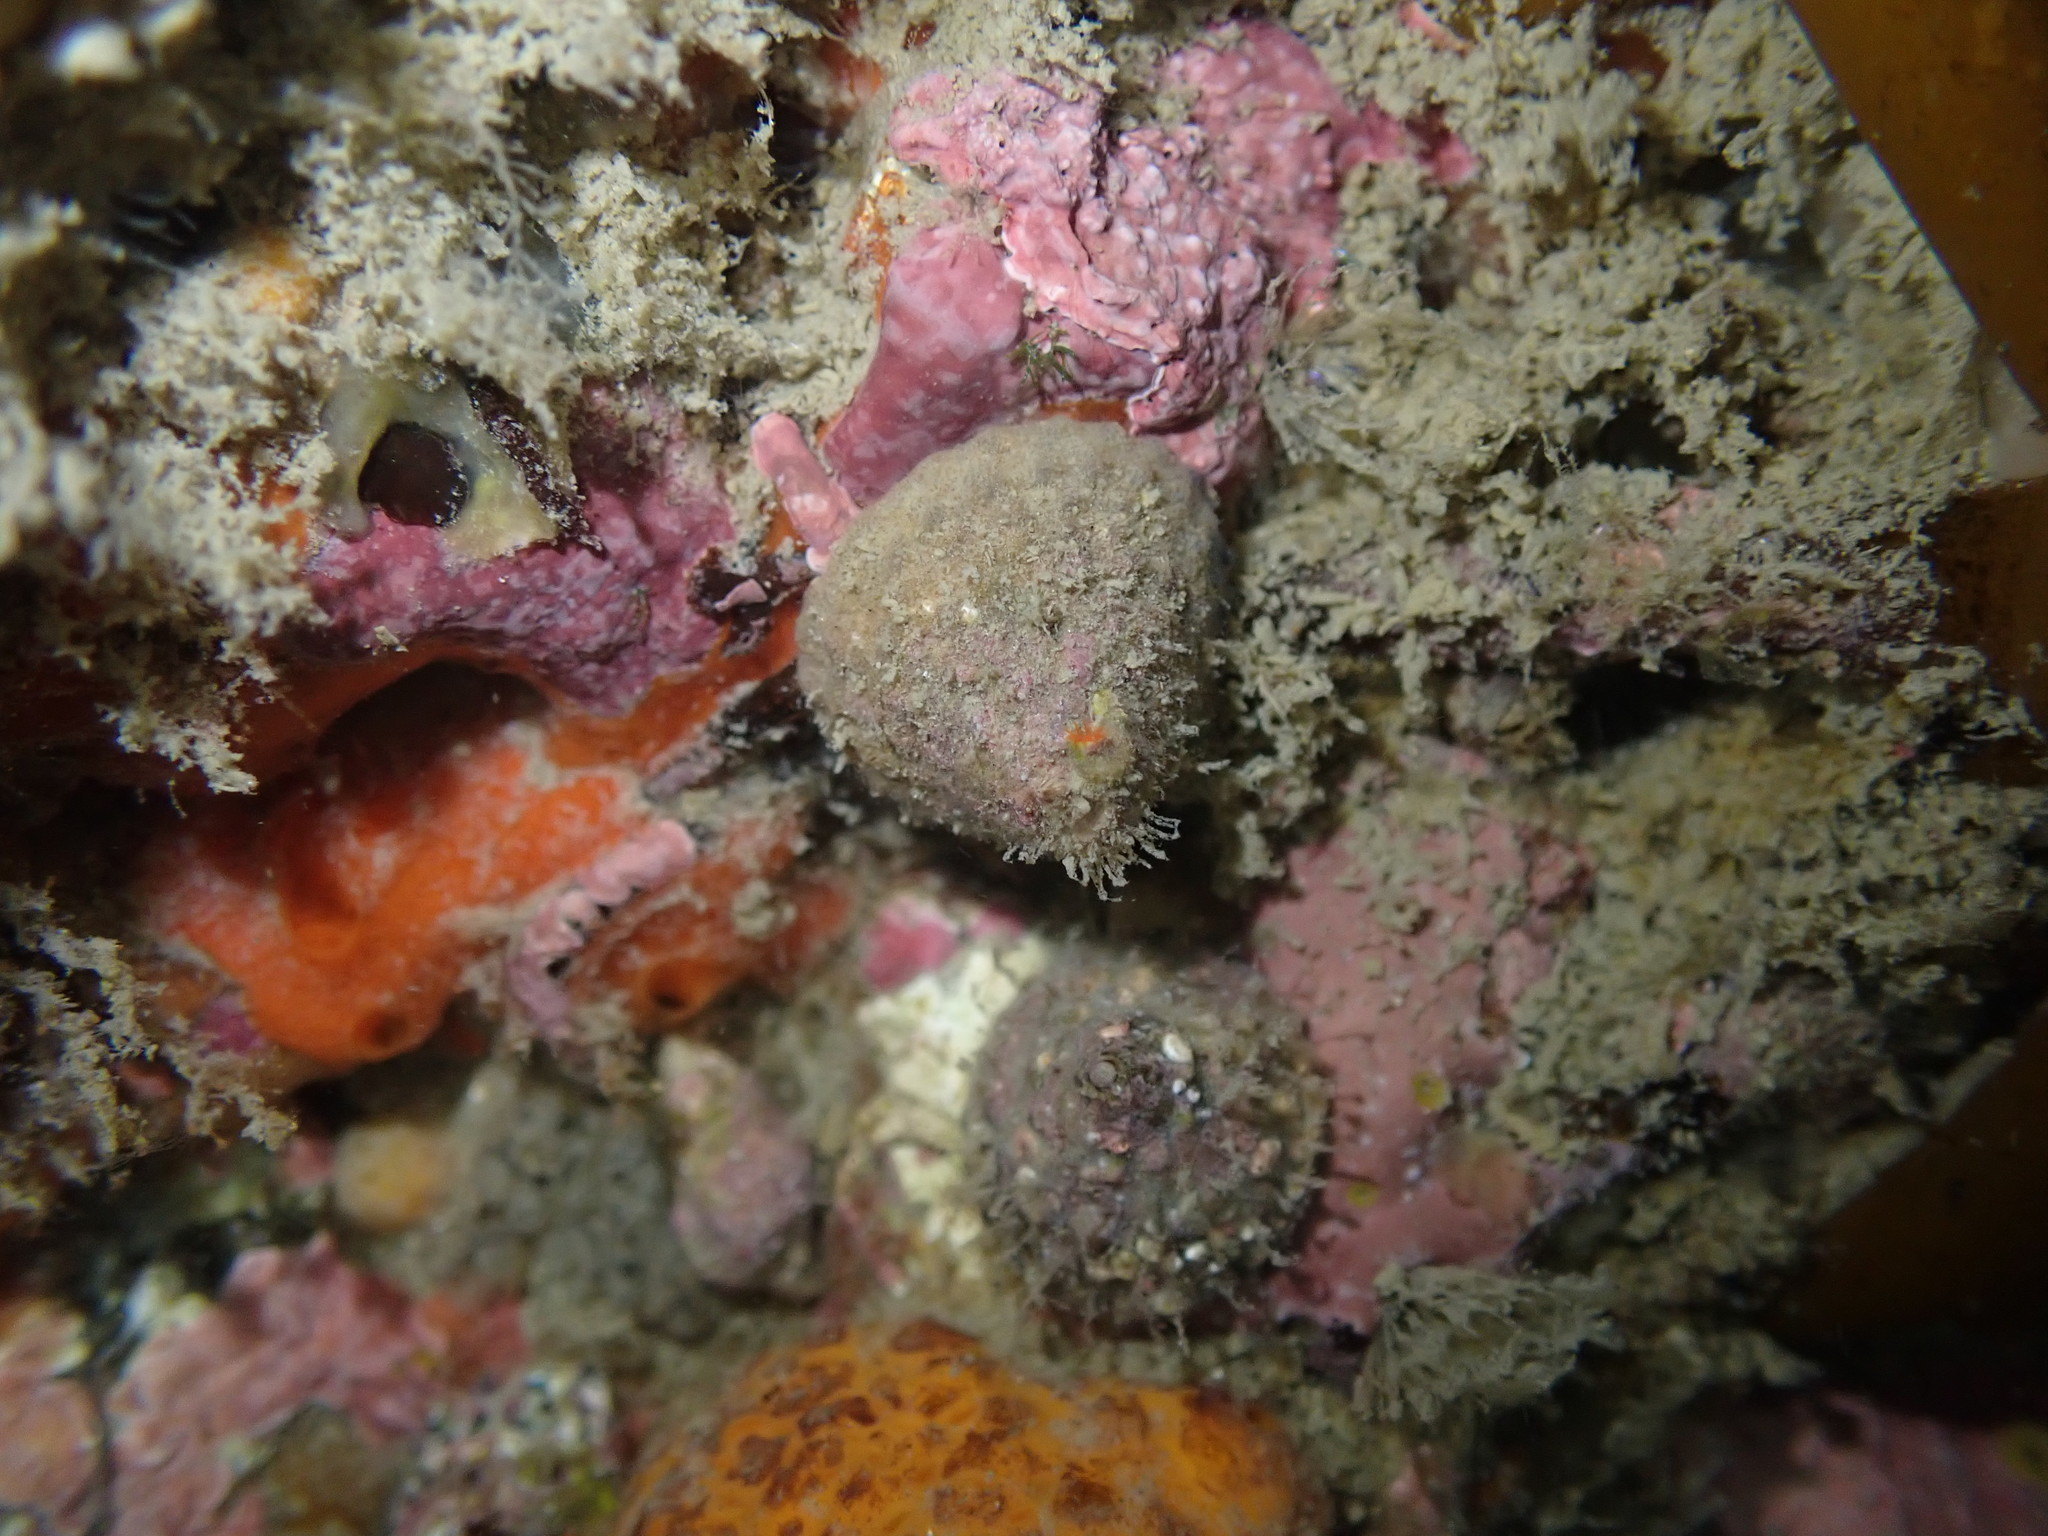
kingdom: Animalia
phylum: Mollusca
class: Gastropoda
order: Trochida
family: Trochidae
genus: Coelotrochus
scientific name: Coelotrochus viridis
